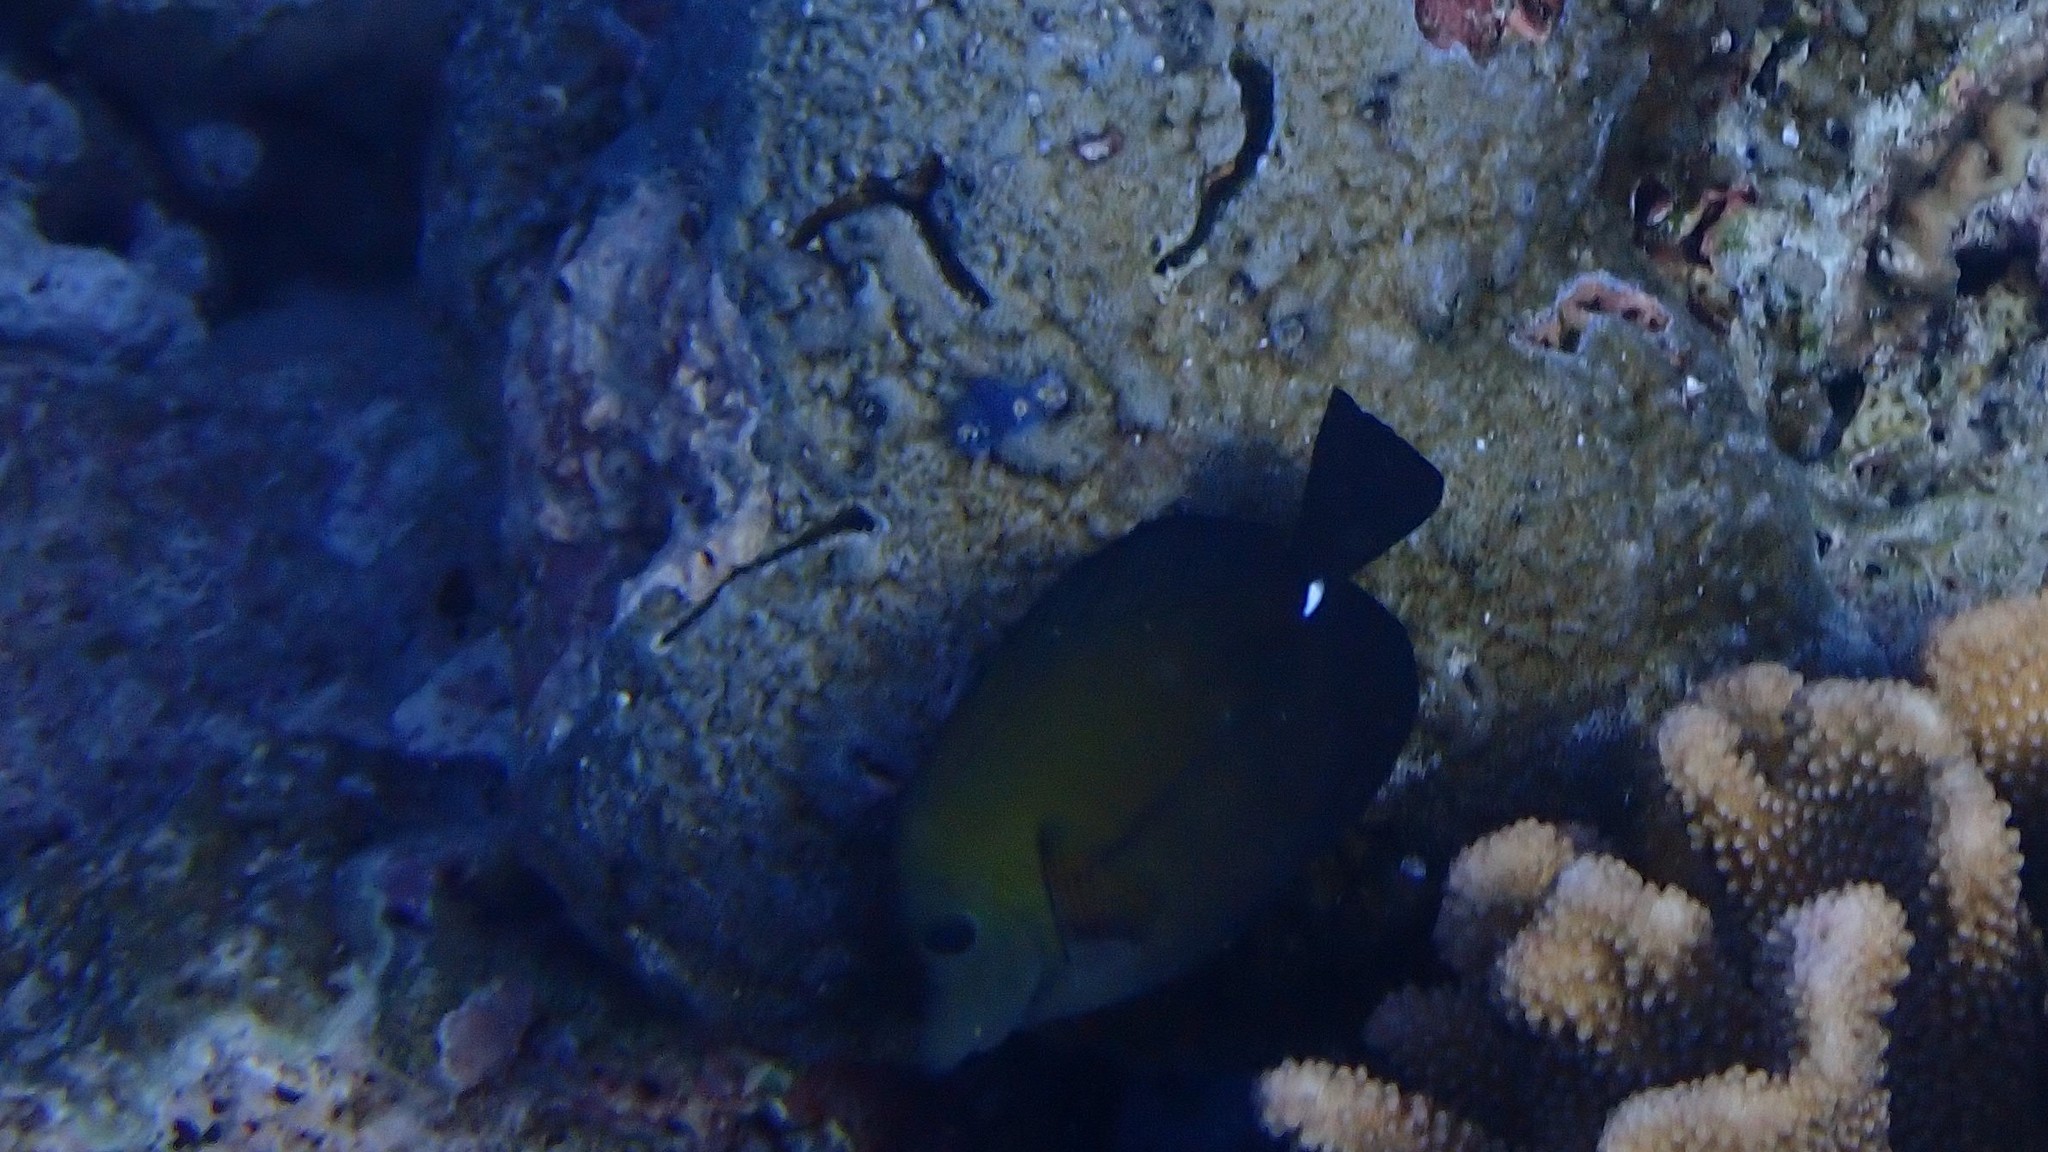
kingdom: Animalia
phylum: Chordata
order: Perciformes
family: Acanthuridae
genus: Zebrasoma
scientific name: Zebrasoma scopas
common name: Twotone tang
